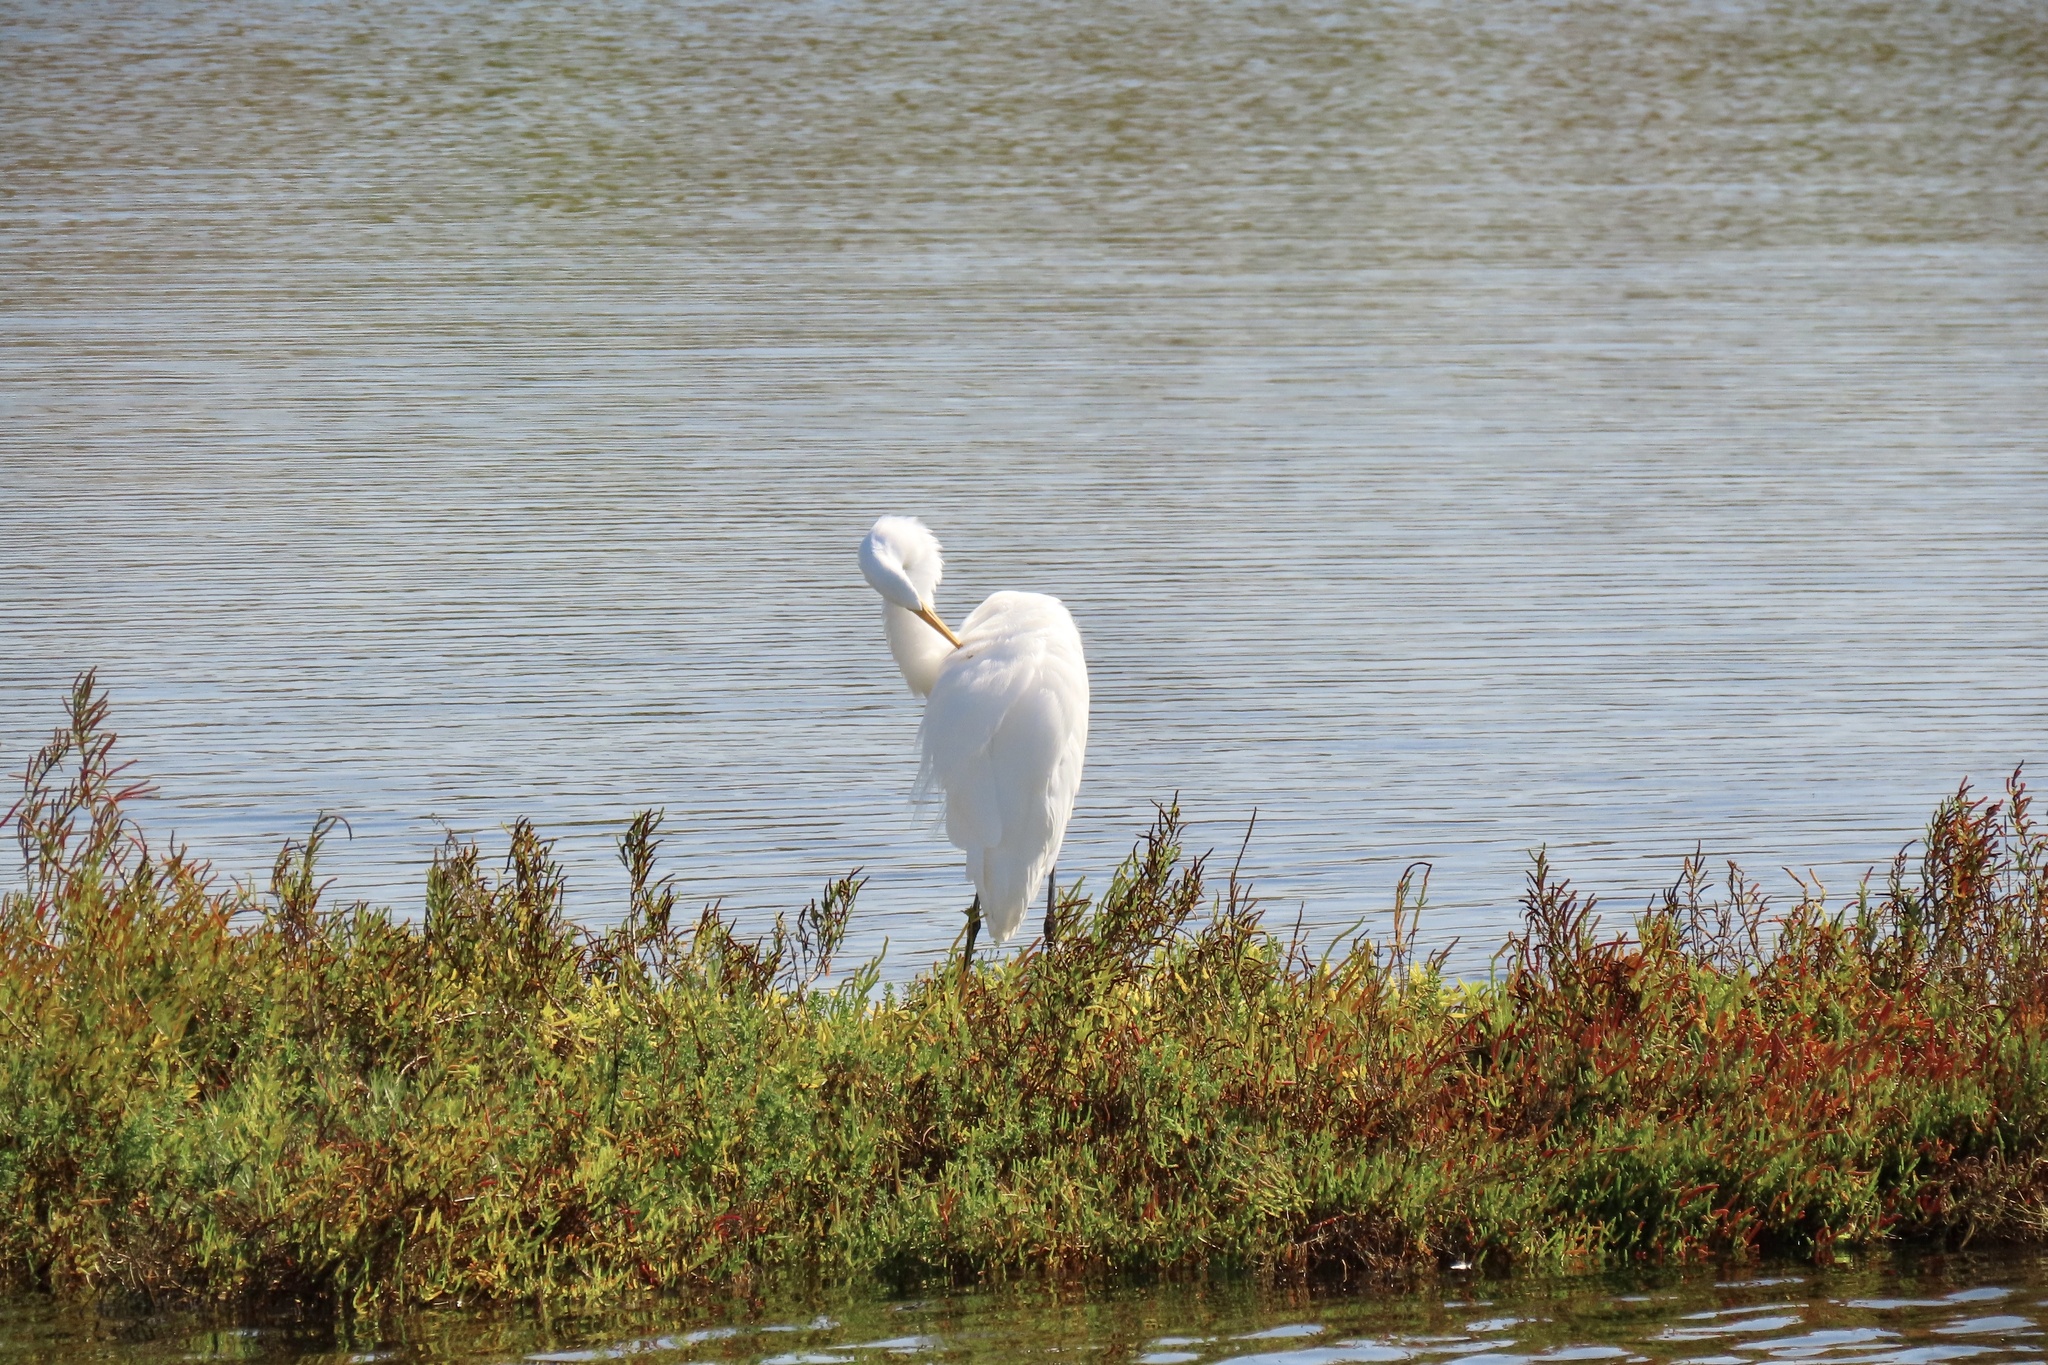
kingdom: Animalia
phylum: Chordata
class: Aves
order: Pelecaniformes
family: Ardeidae
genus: Ardea
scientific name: Ardea alba
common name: Great egret
